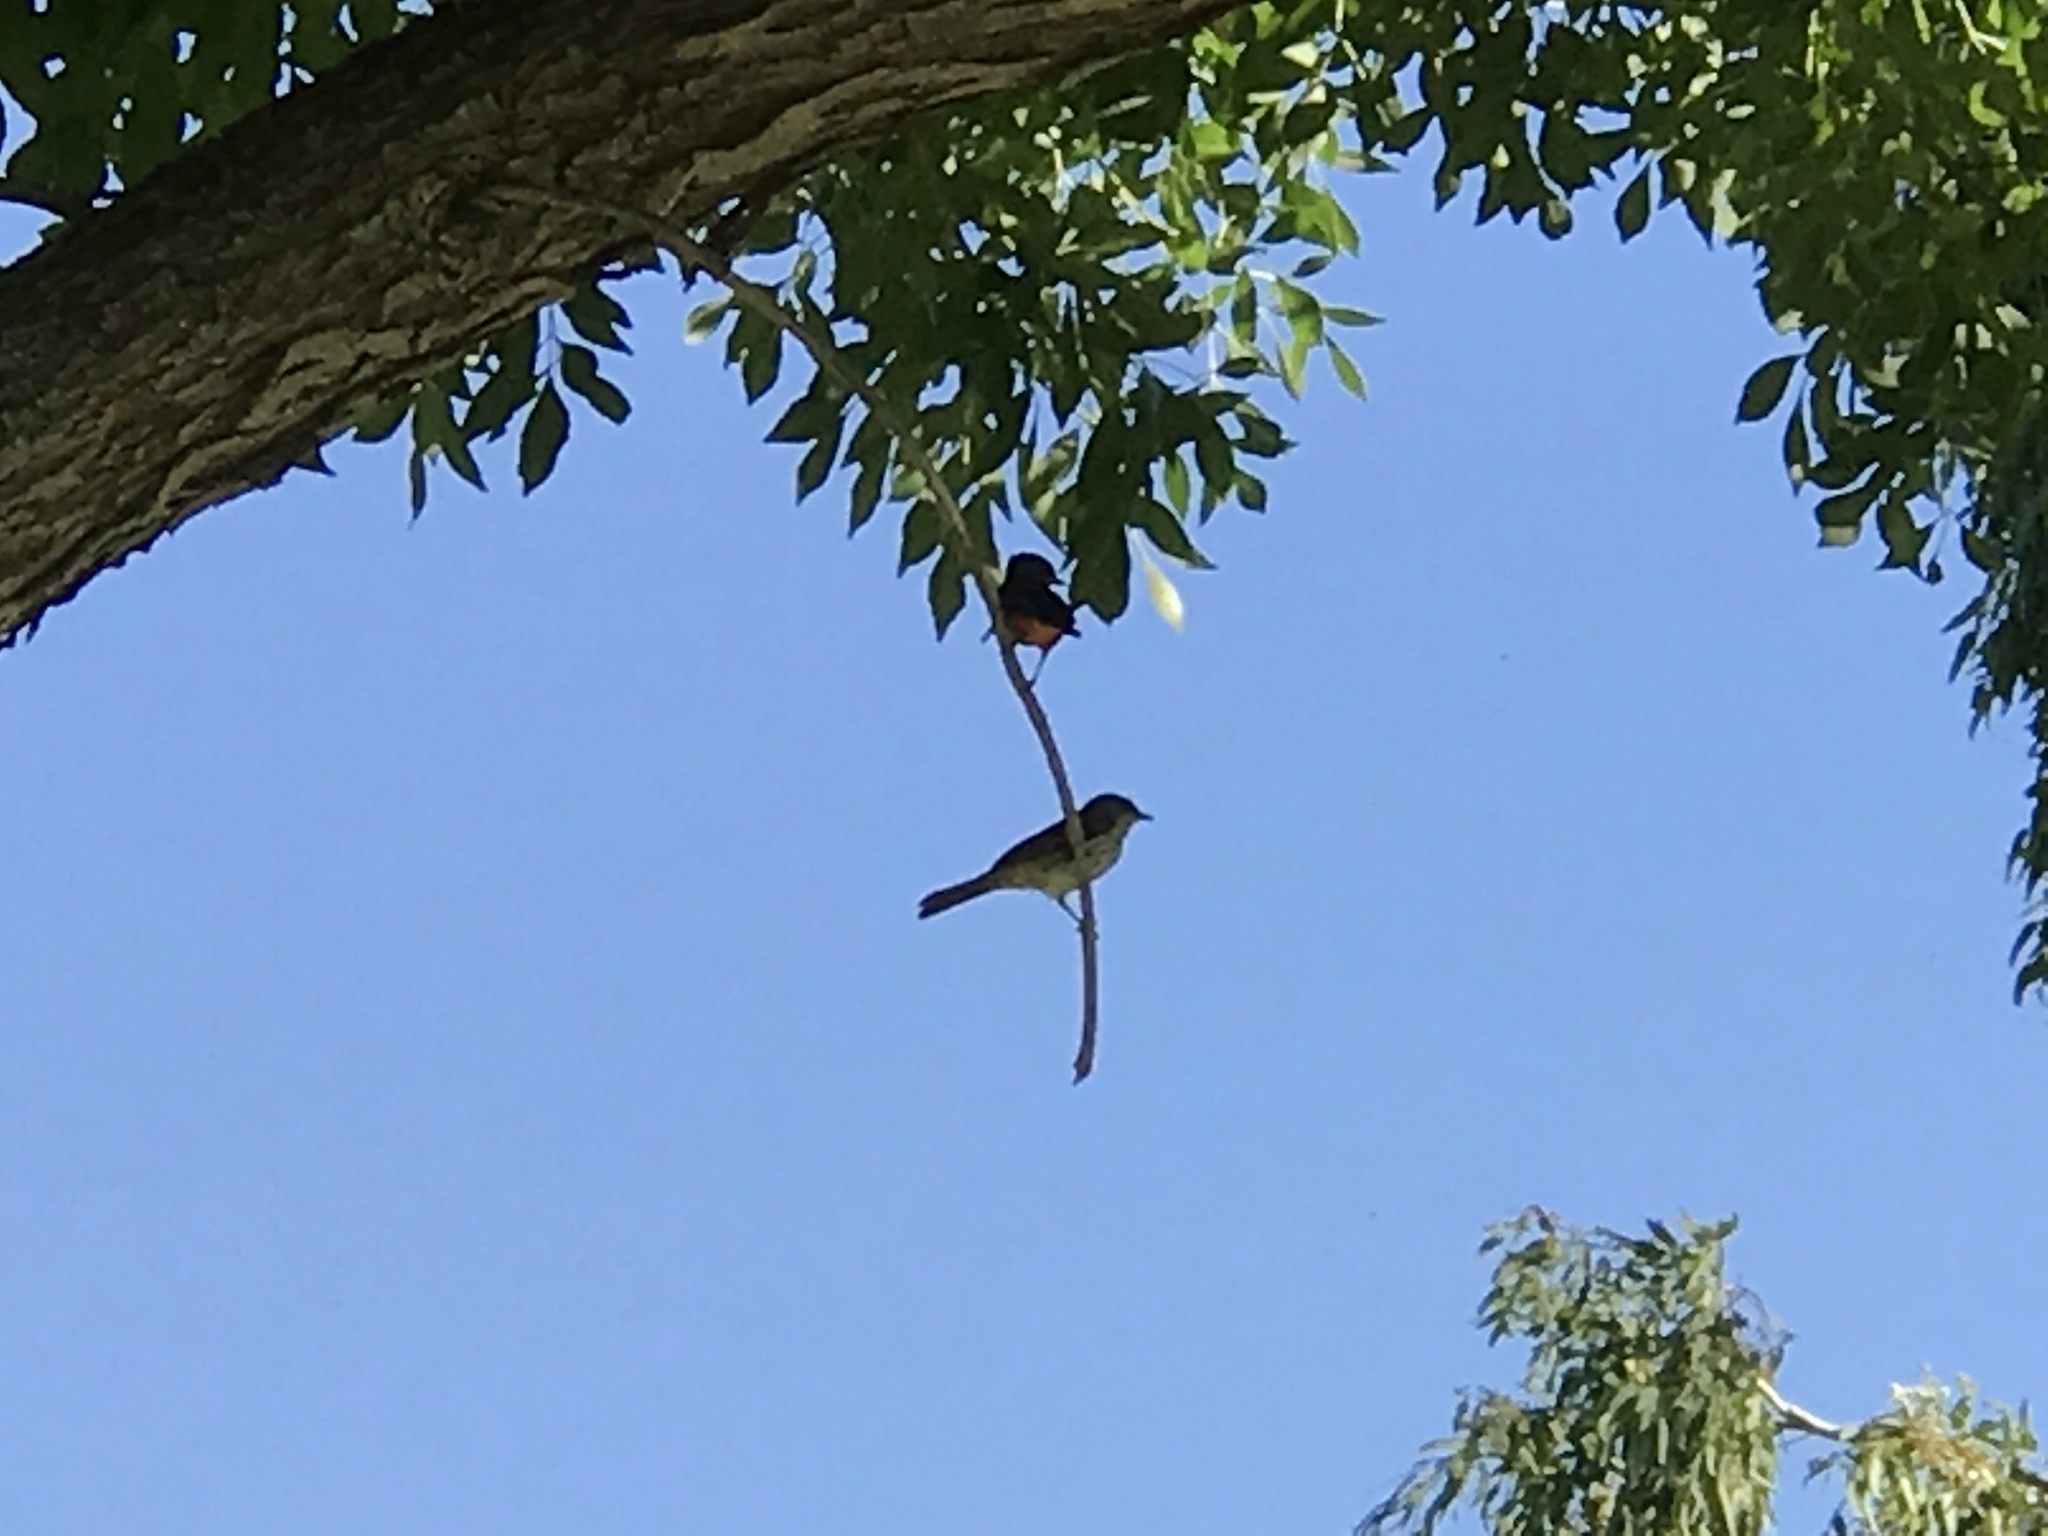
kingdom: Animalia
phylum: Chordata
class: Aves
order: Passeriformes
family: Tyrannidae
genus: Pyrocephalus
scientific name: Pyrocephalus rubinus
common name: Vermilion flycatcher
